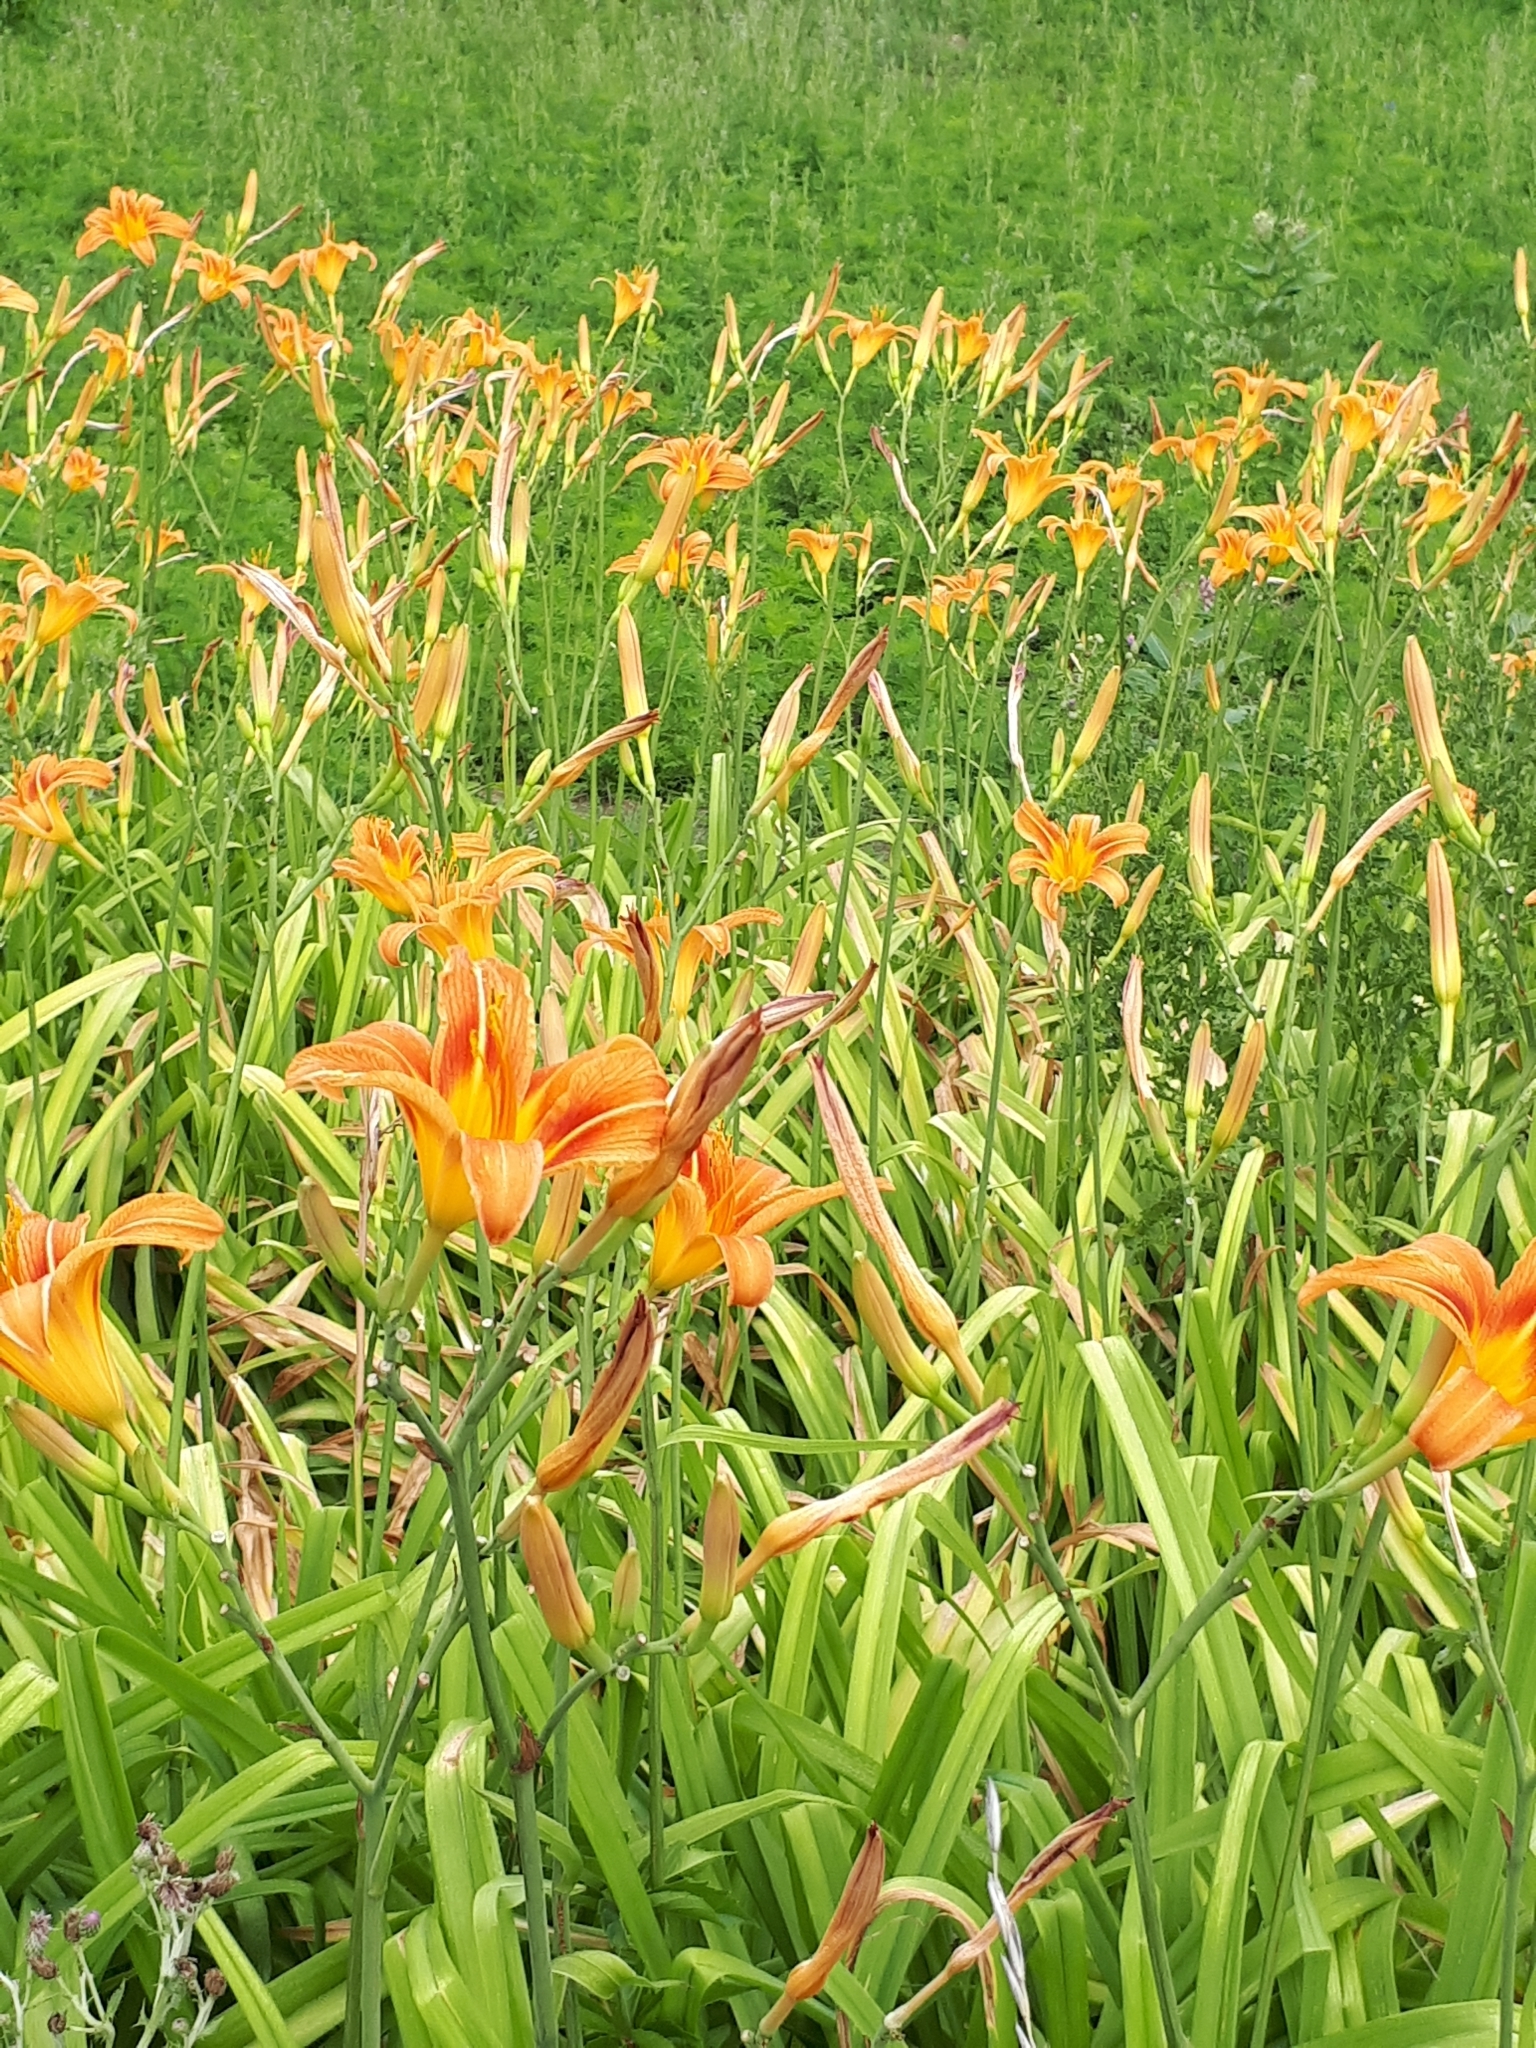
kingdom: Plantae
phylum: Tracheophyta
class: Liliopsida
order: Asparagales
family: Asphodelaceae
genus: Hemerocallis
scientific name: Hemerocallis fulva
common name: Orange day-lily
